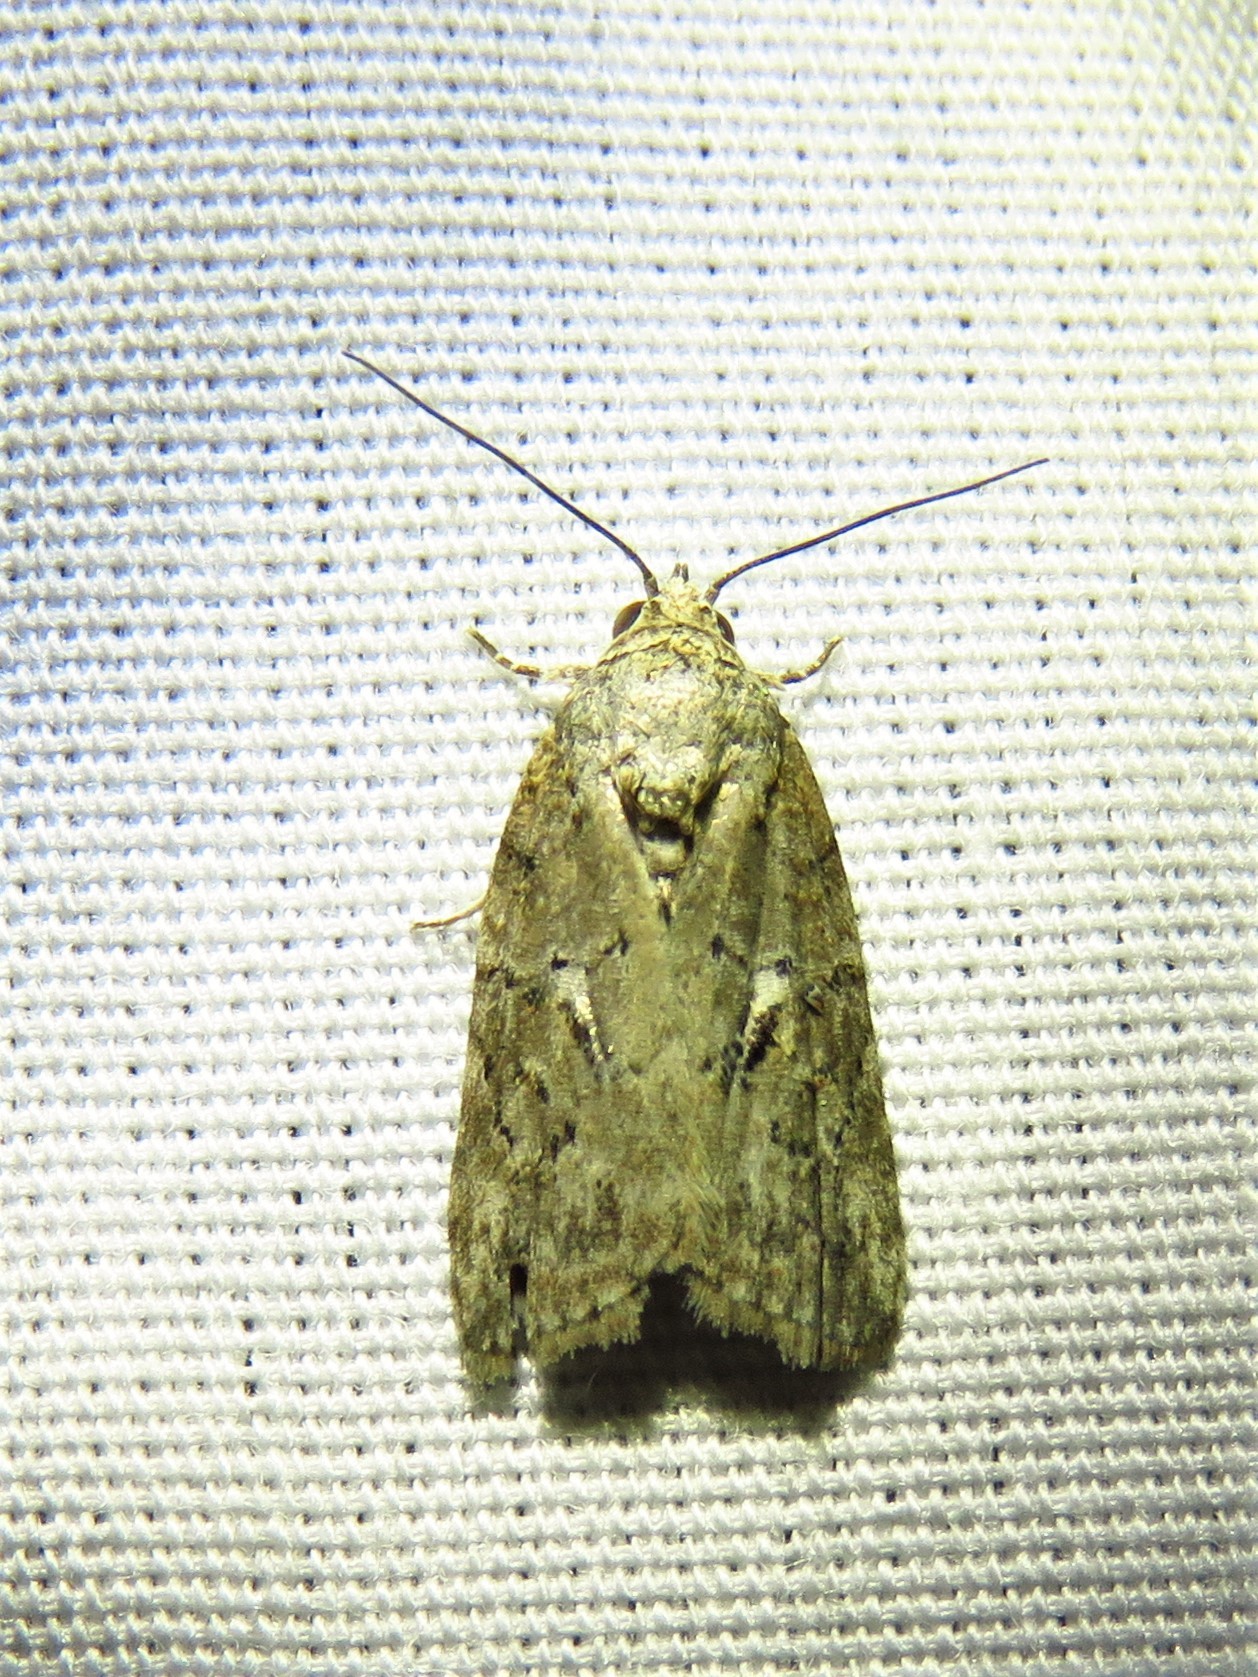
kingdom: Animalia
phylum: Arthropoda
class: Insecta
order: Lepidoptera
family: Nolidae
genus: Garella
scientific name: Garella nilotica
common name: Black-olive caterpillar moth
